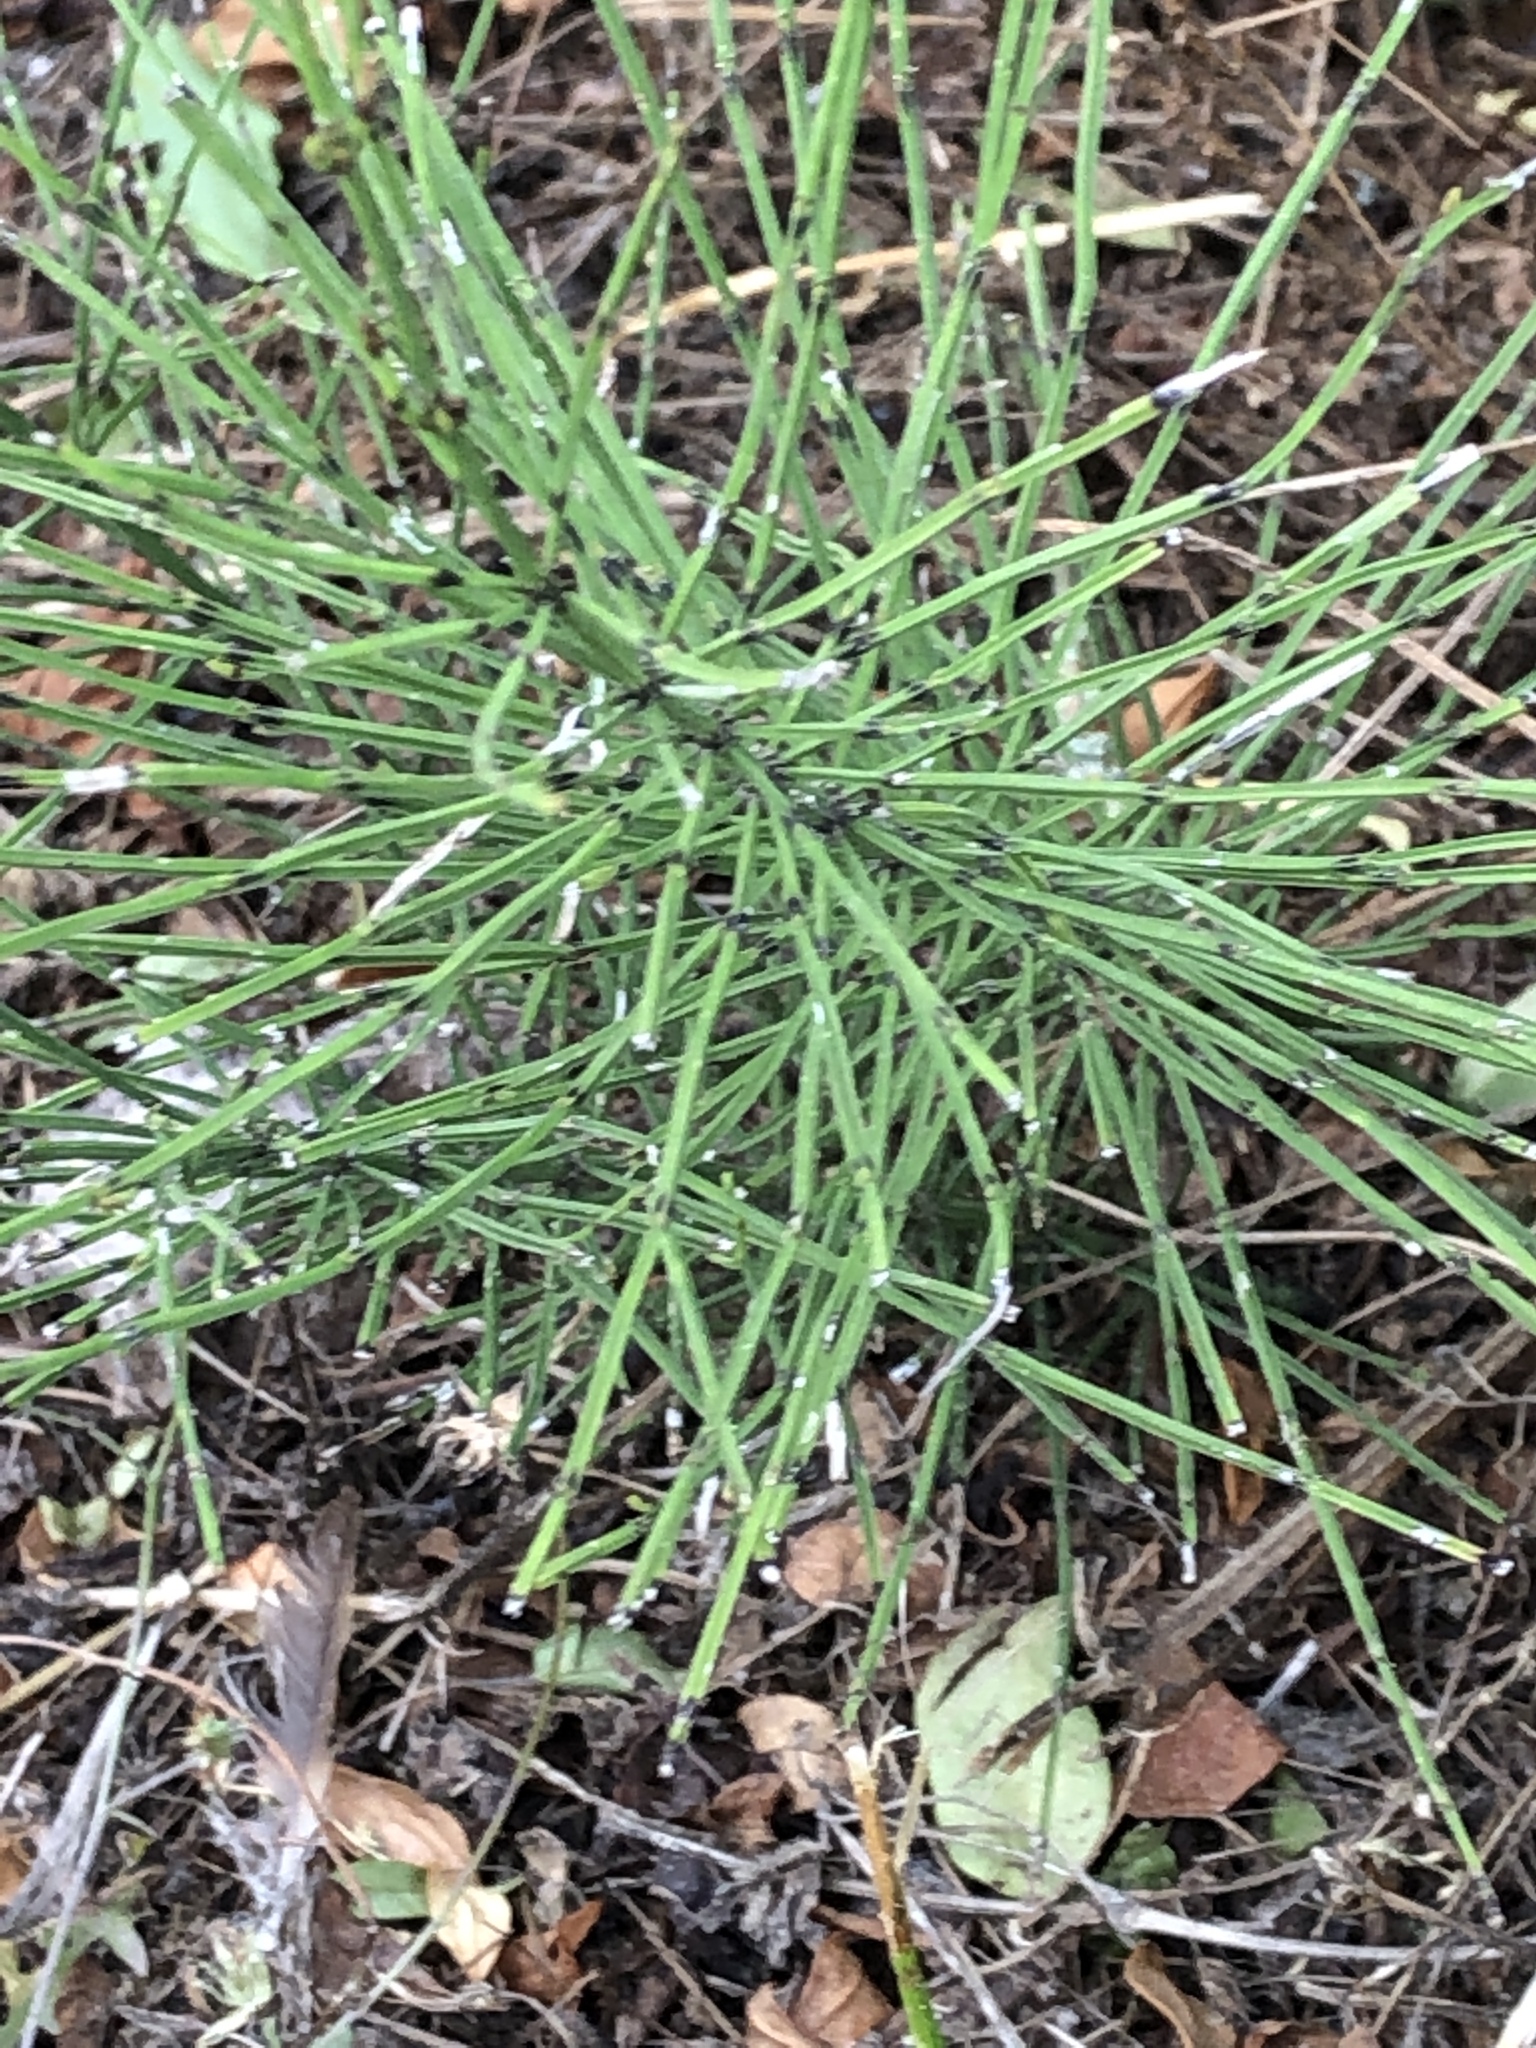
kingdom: Plantae
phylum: Tracheophyta
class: Polypodiopsida
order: Equisetales
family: Equisetaceae
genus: Equisetum
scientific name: Equisetum arvense
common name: Field horsetail
